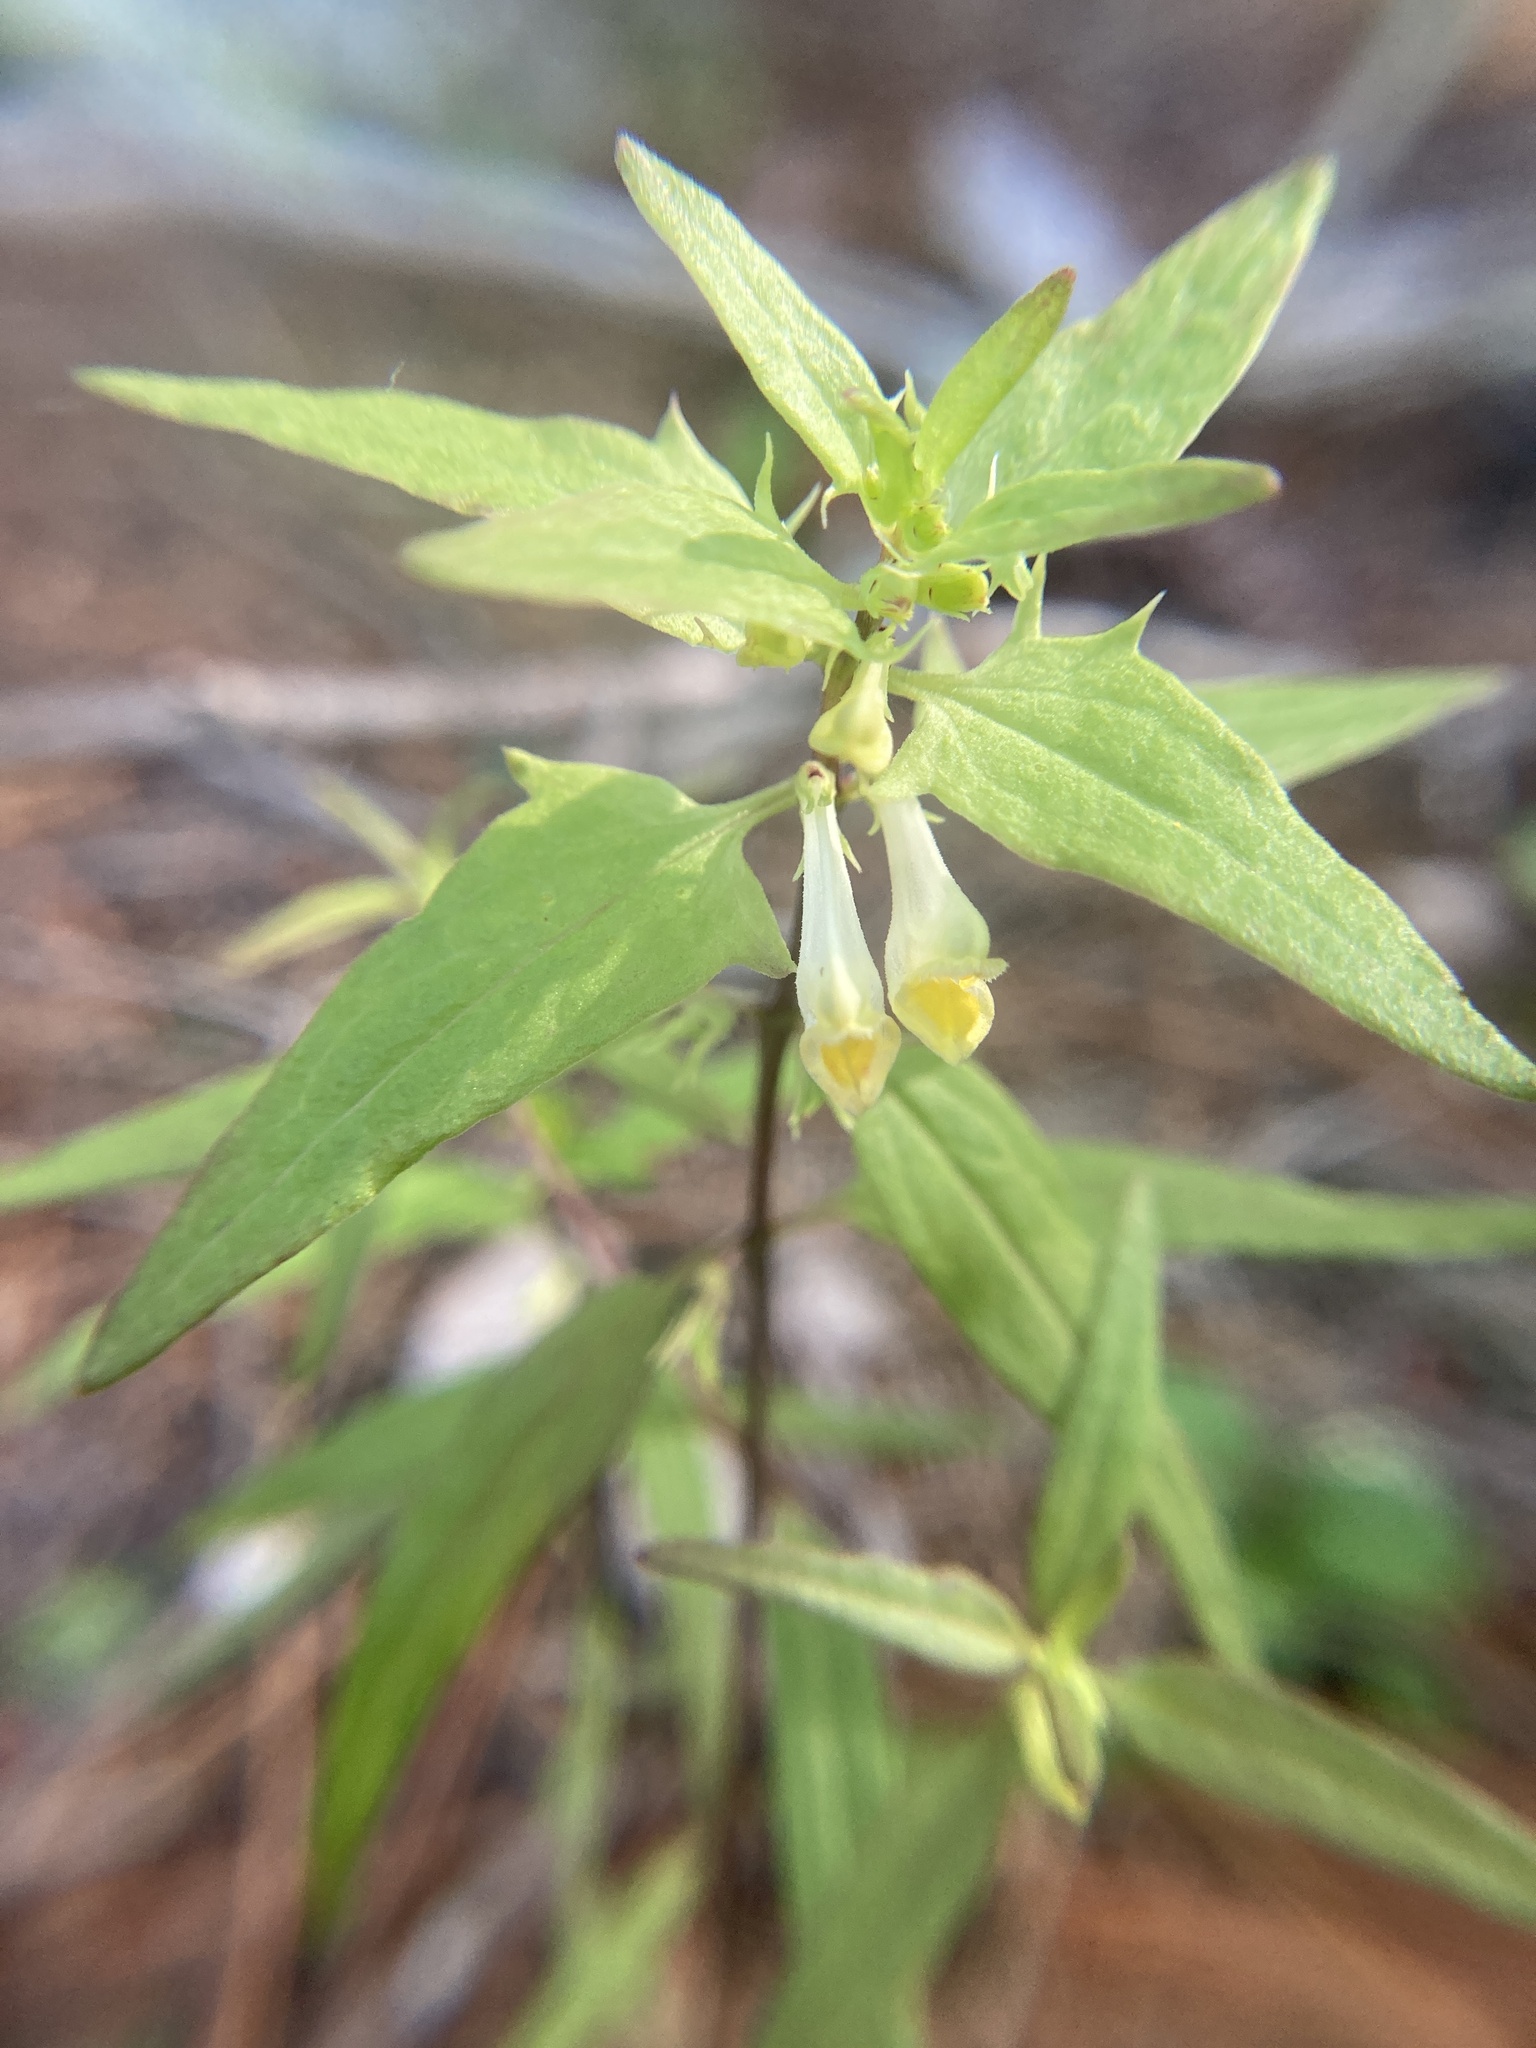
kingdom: Plantae
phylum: Tracheophyta
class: Magnoliopsida
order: Lamiales
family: Orobanchaceae
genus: Melampyrum
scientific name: Melampyrum lineare
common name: American cow-wheat
